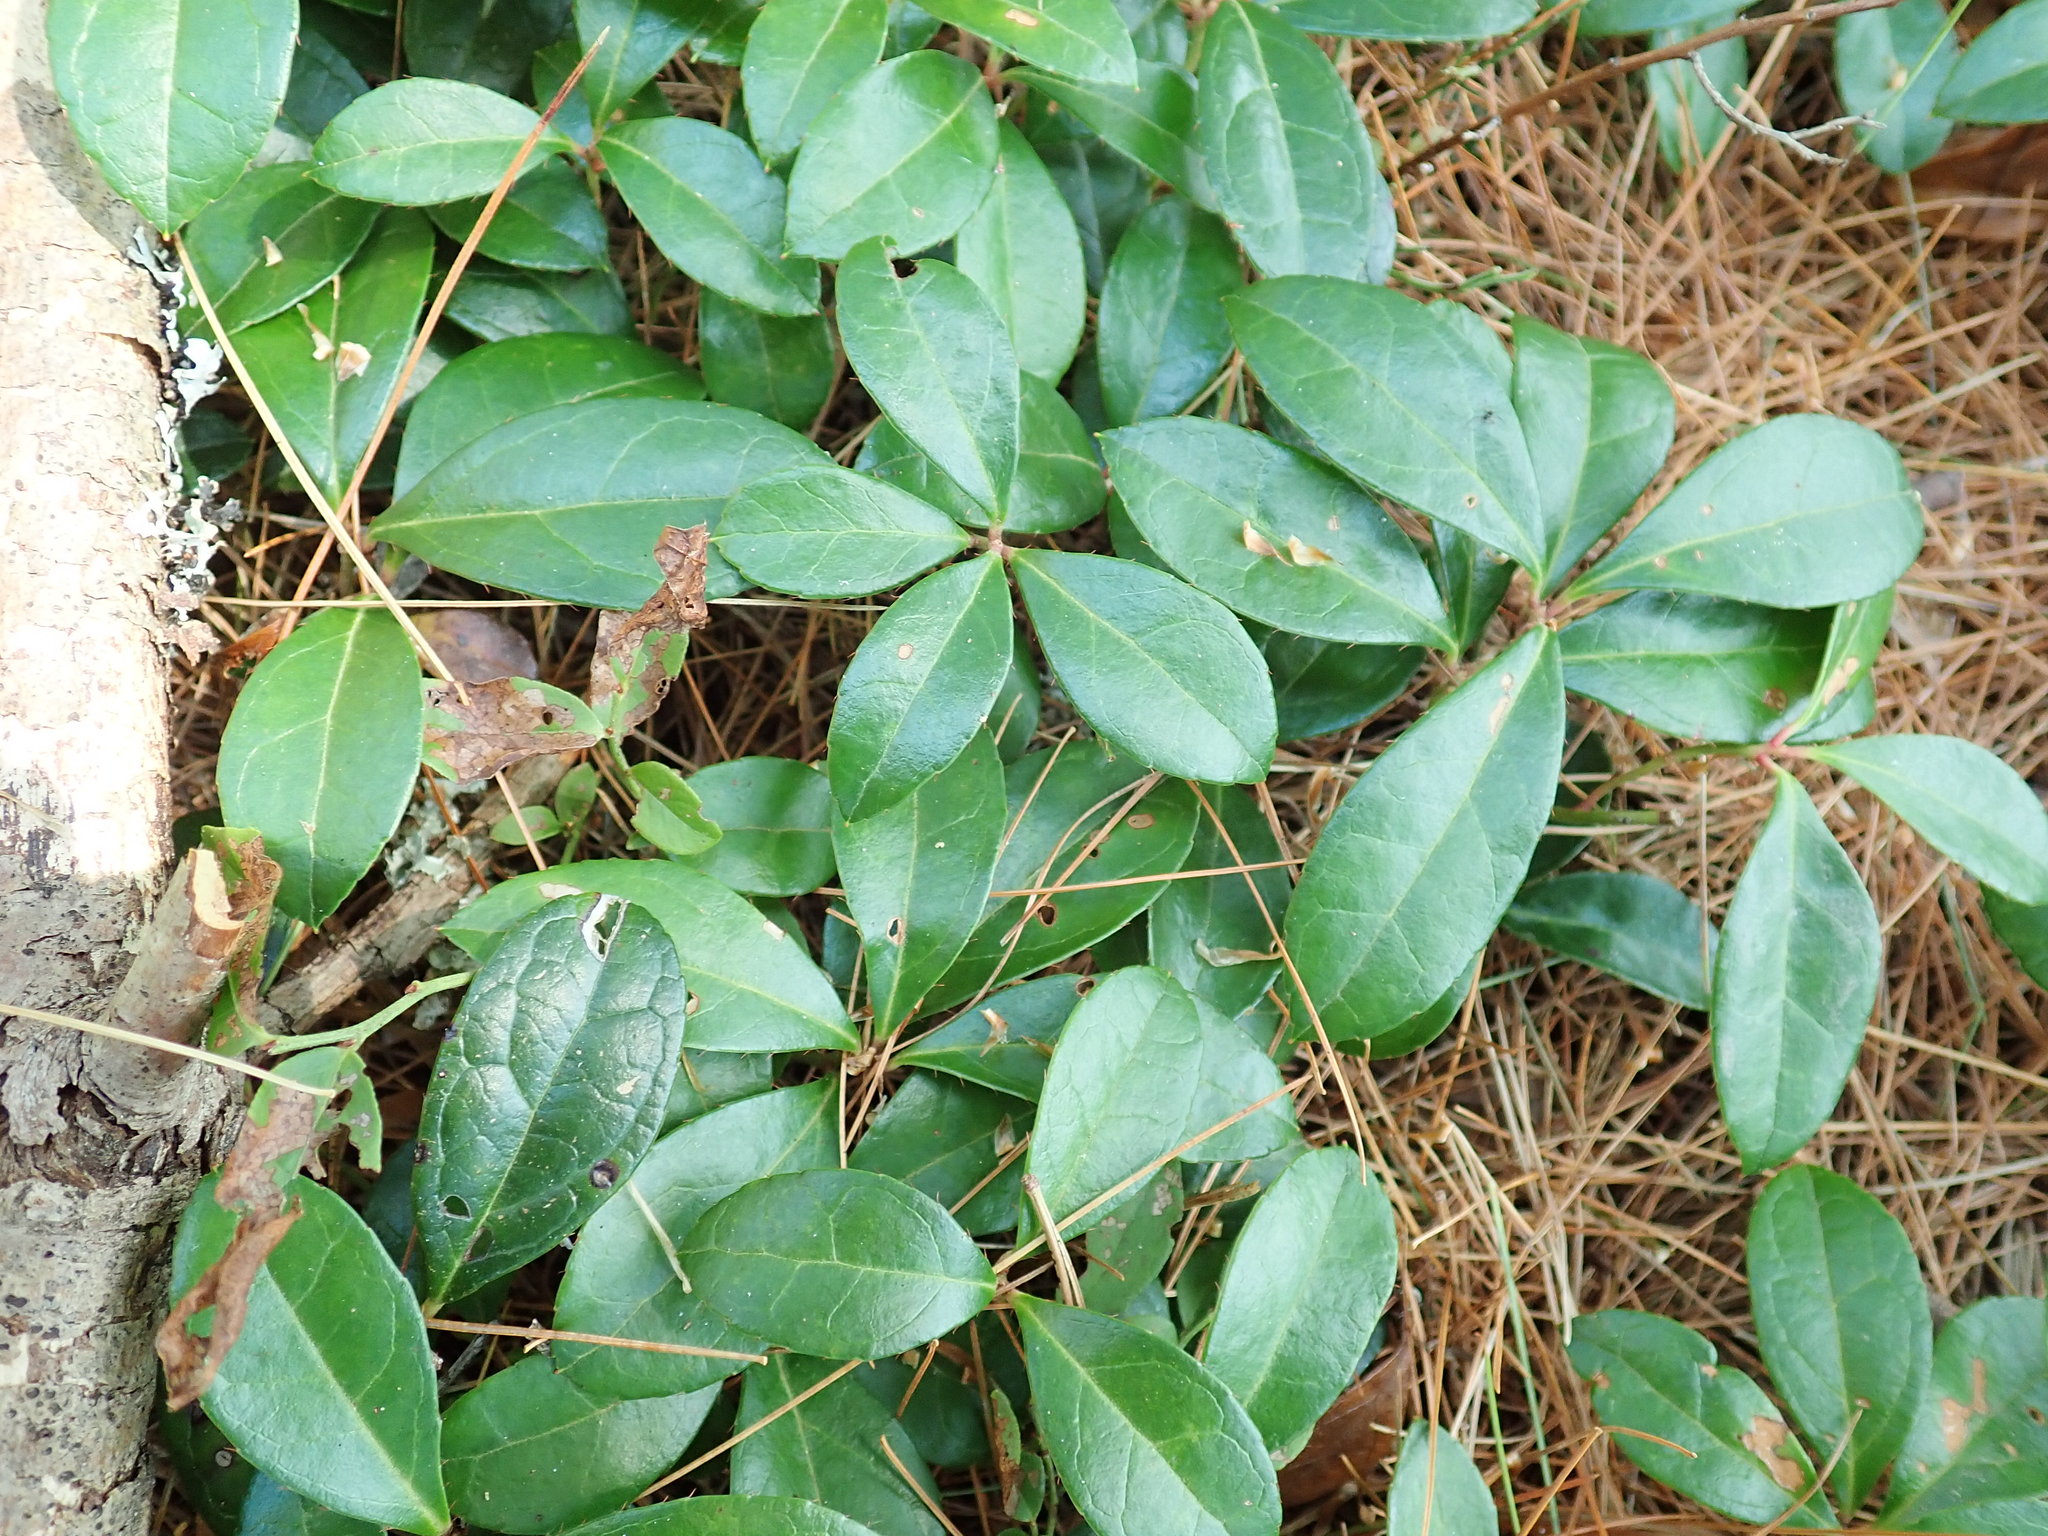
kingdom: Plantae
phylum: Tracheophyta
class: Magnoliopsida
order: Ericales
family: Ericaceae
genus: Gaultheria
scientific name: Gaultheria procumbens
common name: Checkerberry
